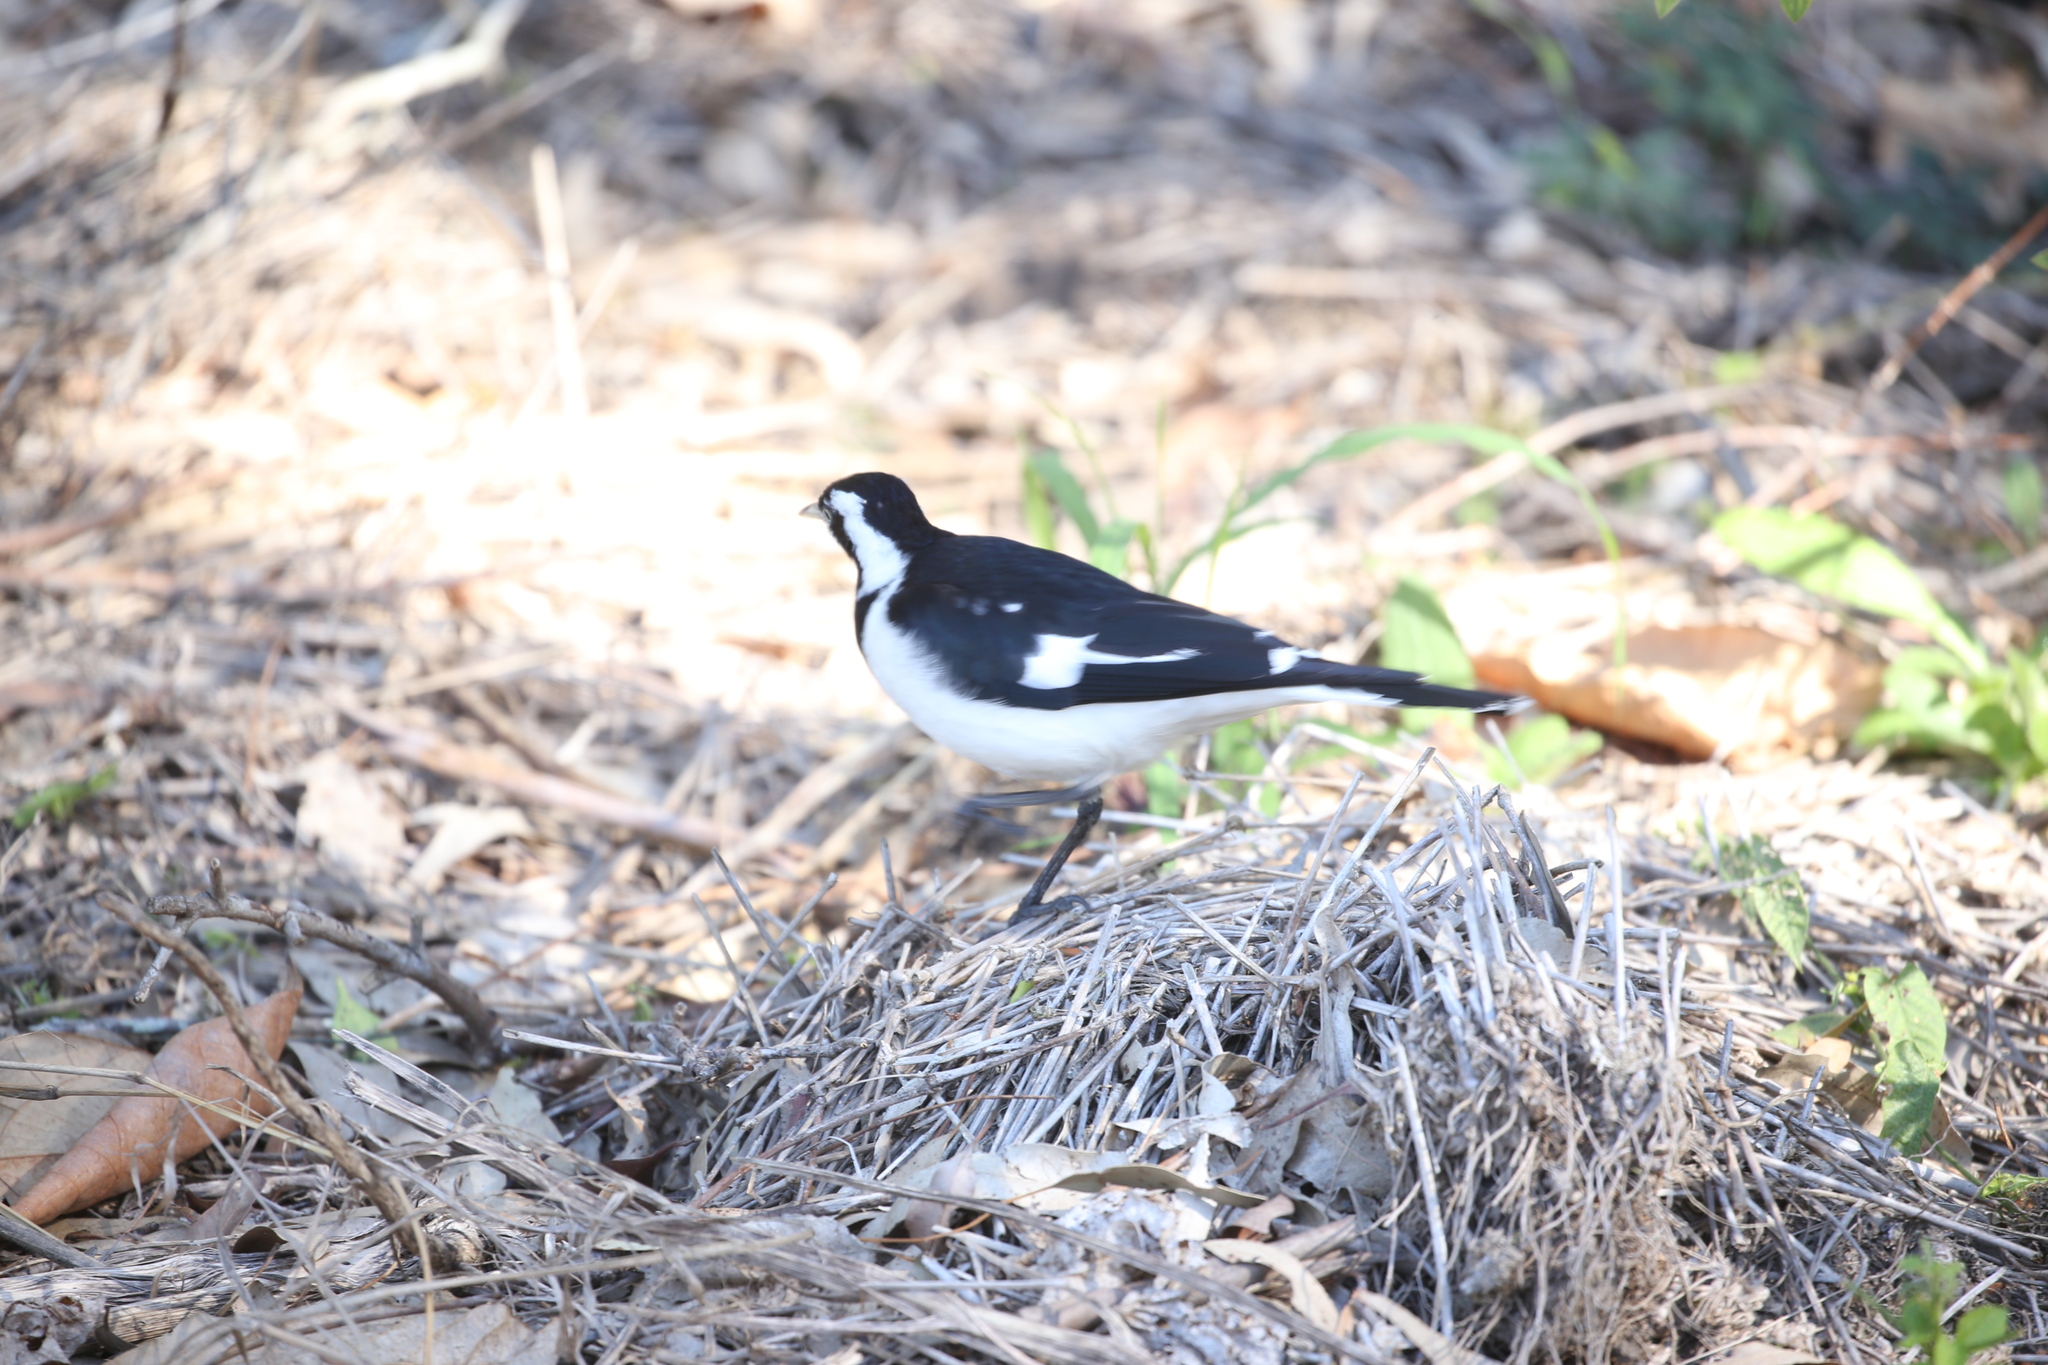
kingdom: Animalia
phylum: Chordata
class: Aves
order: Passeriformes
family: Monarchidae
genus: Grallina
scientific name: Grallina cyanoleuca
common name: Magpie-lark
